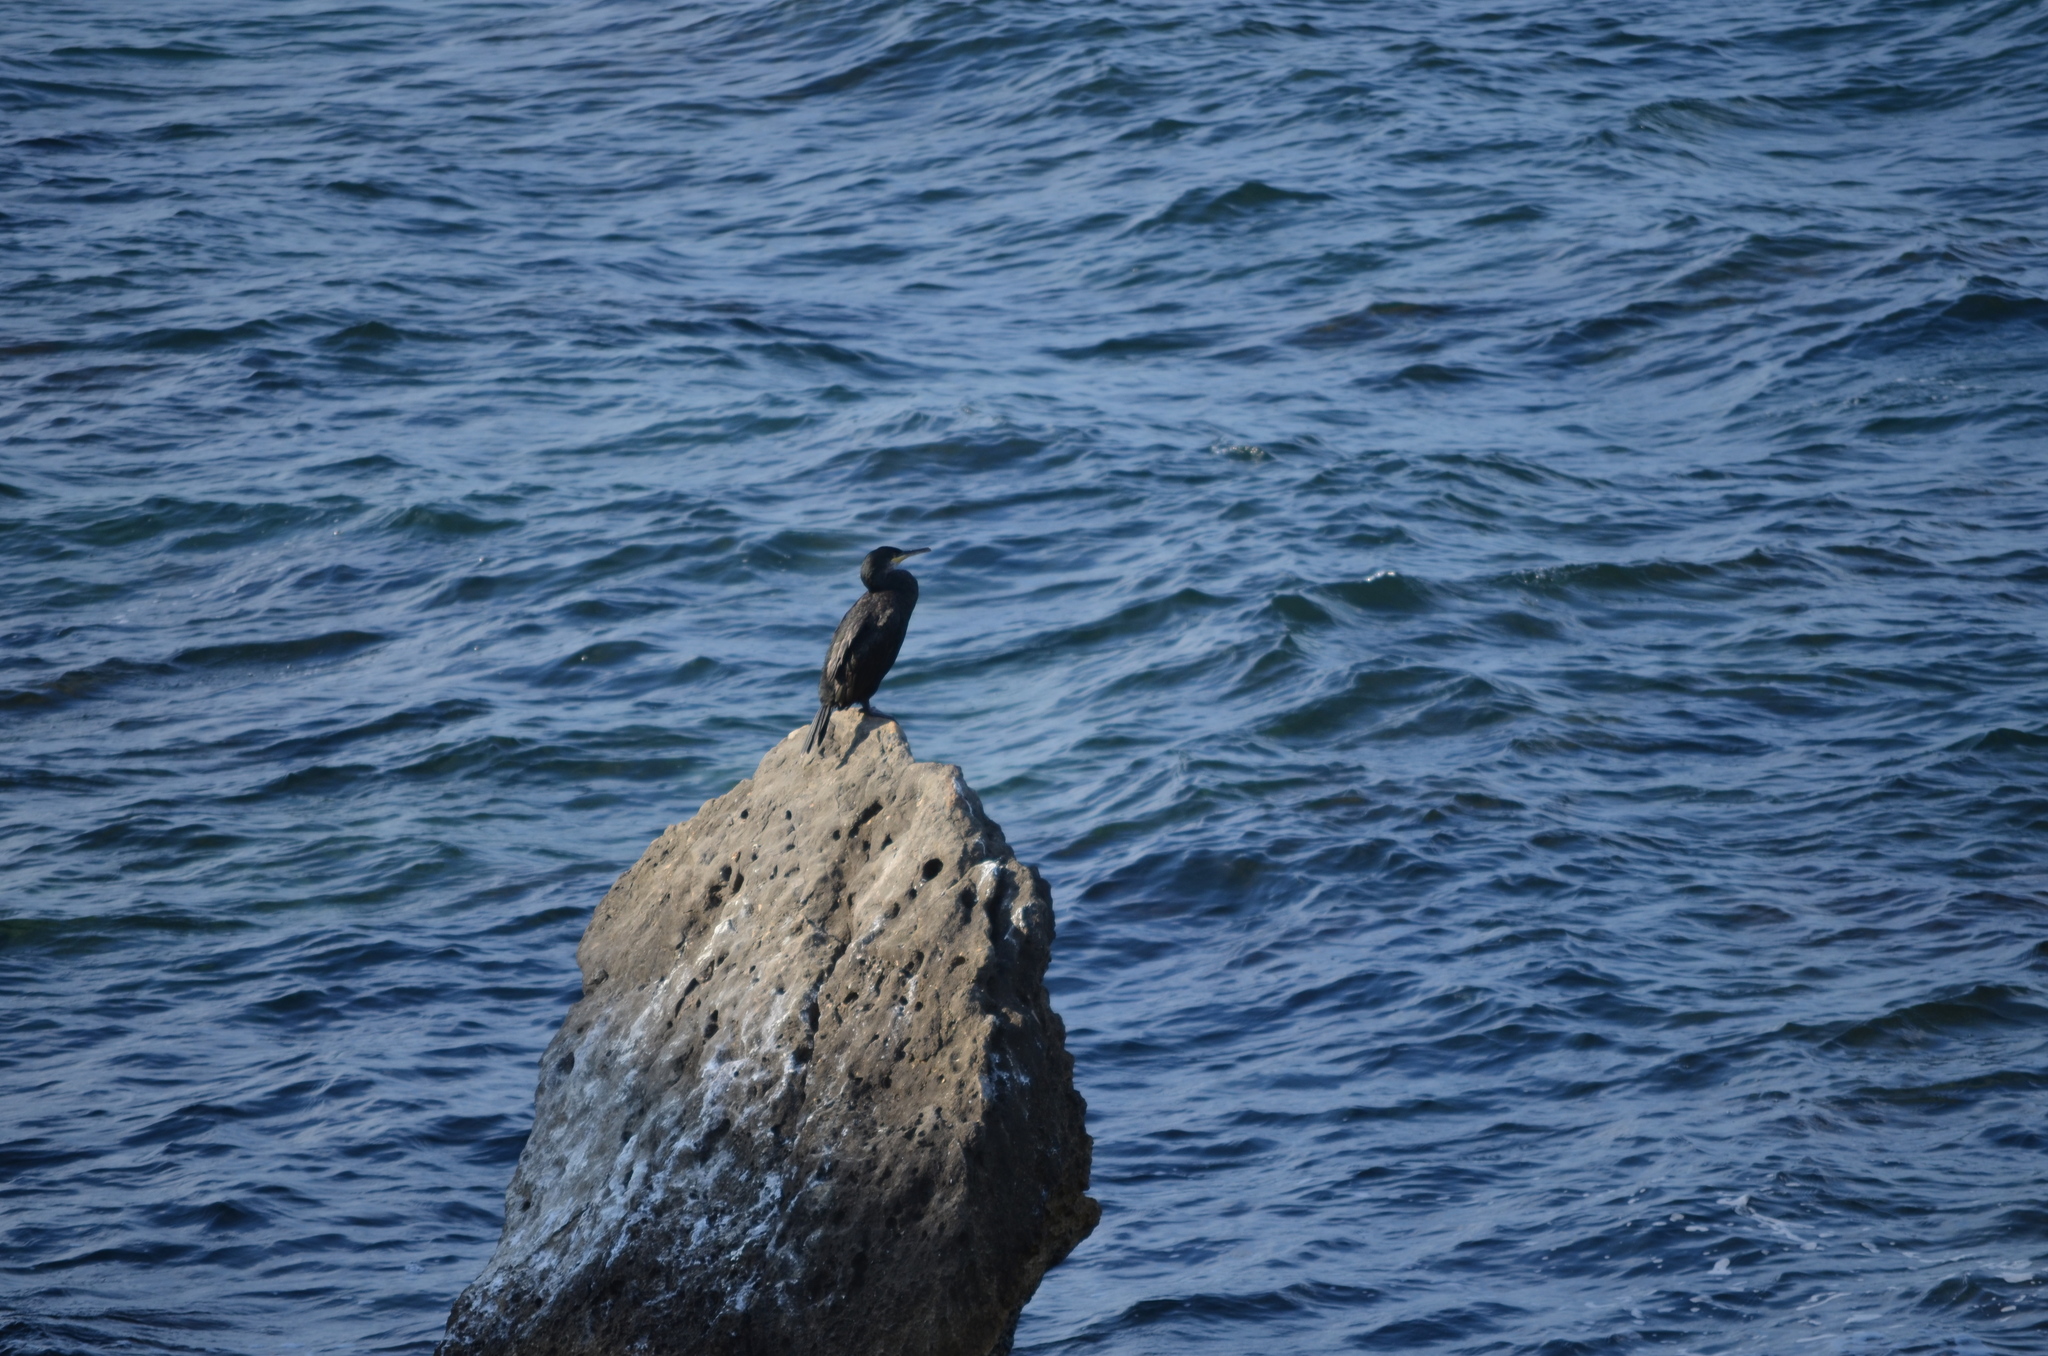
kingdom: Animalia
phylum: Chordata
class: Aves
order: Suliformes
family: Phalacrocoracidae
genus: Phalacrocorax
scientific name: Phalacrocorax aristotelis
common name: European shag
